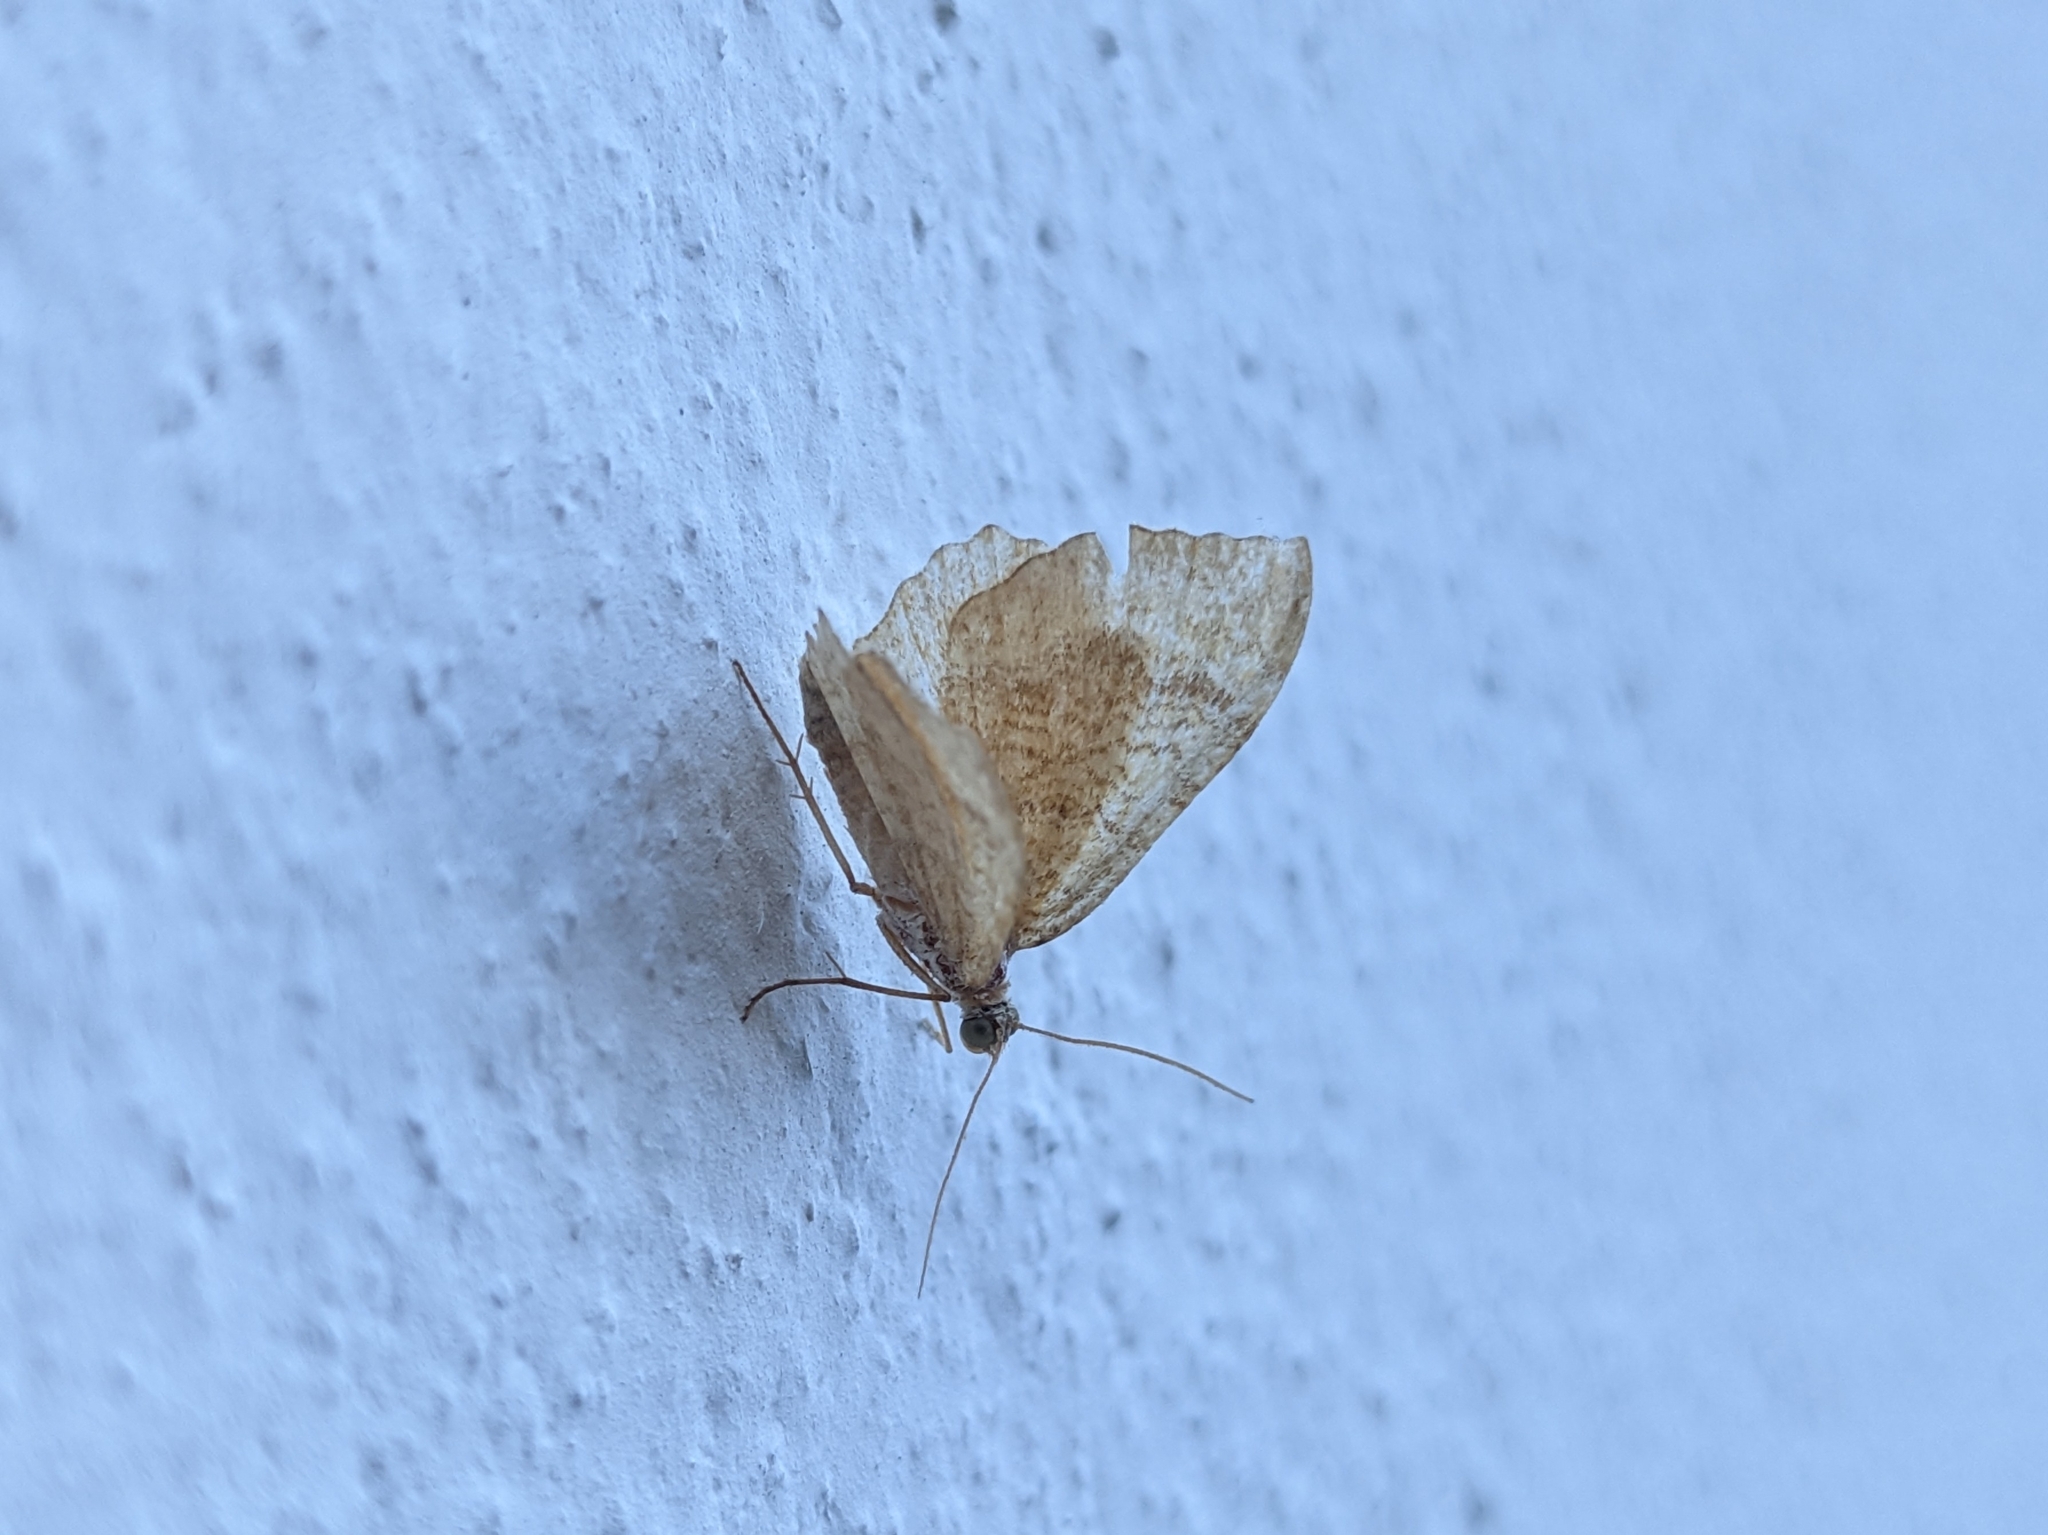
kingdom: Animalia
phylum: Arthropoda
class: Insecta
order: Lepidoptera
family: Geometridae
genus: Camptogramma
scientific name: Camptogramma bilineata
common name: Yellow shell
